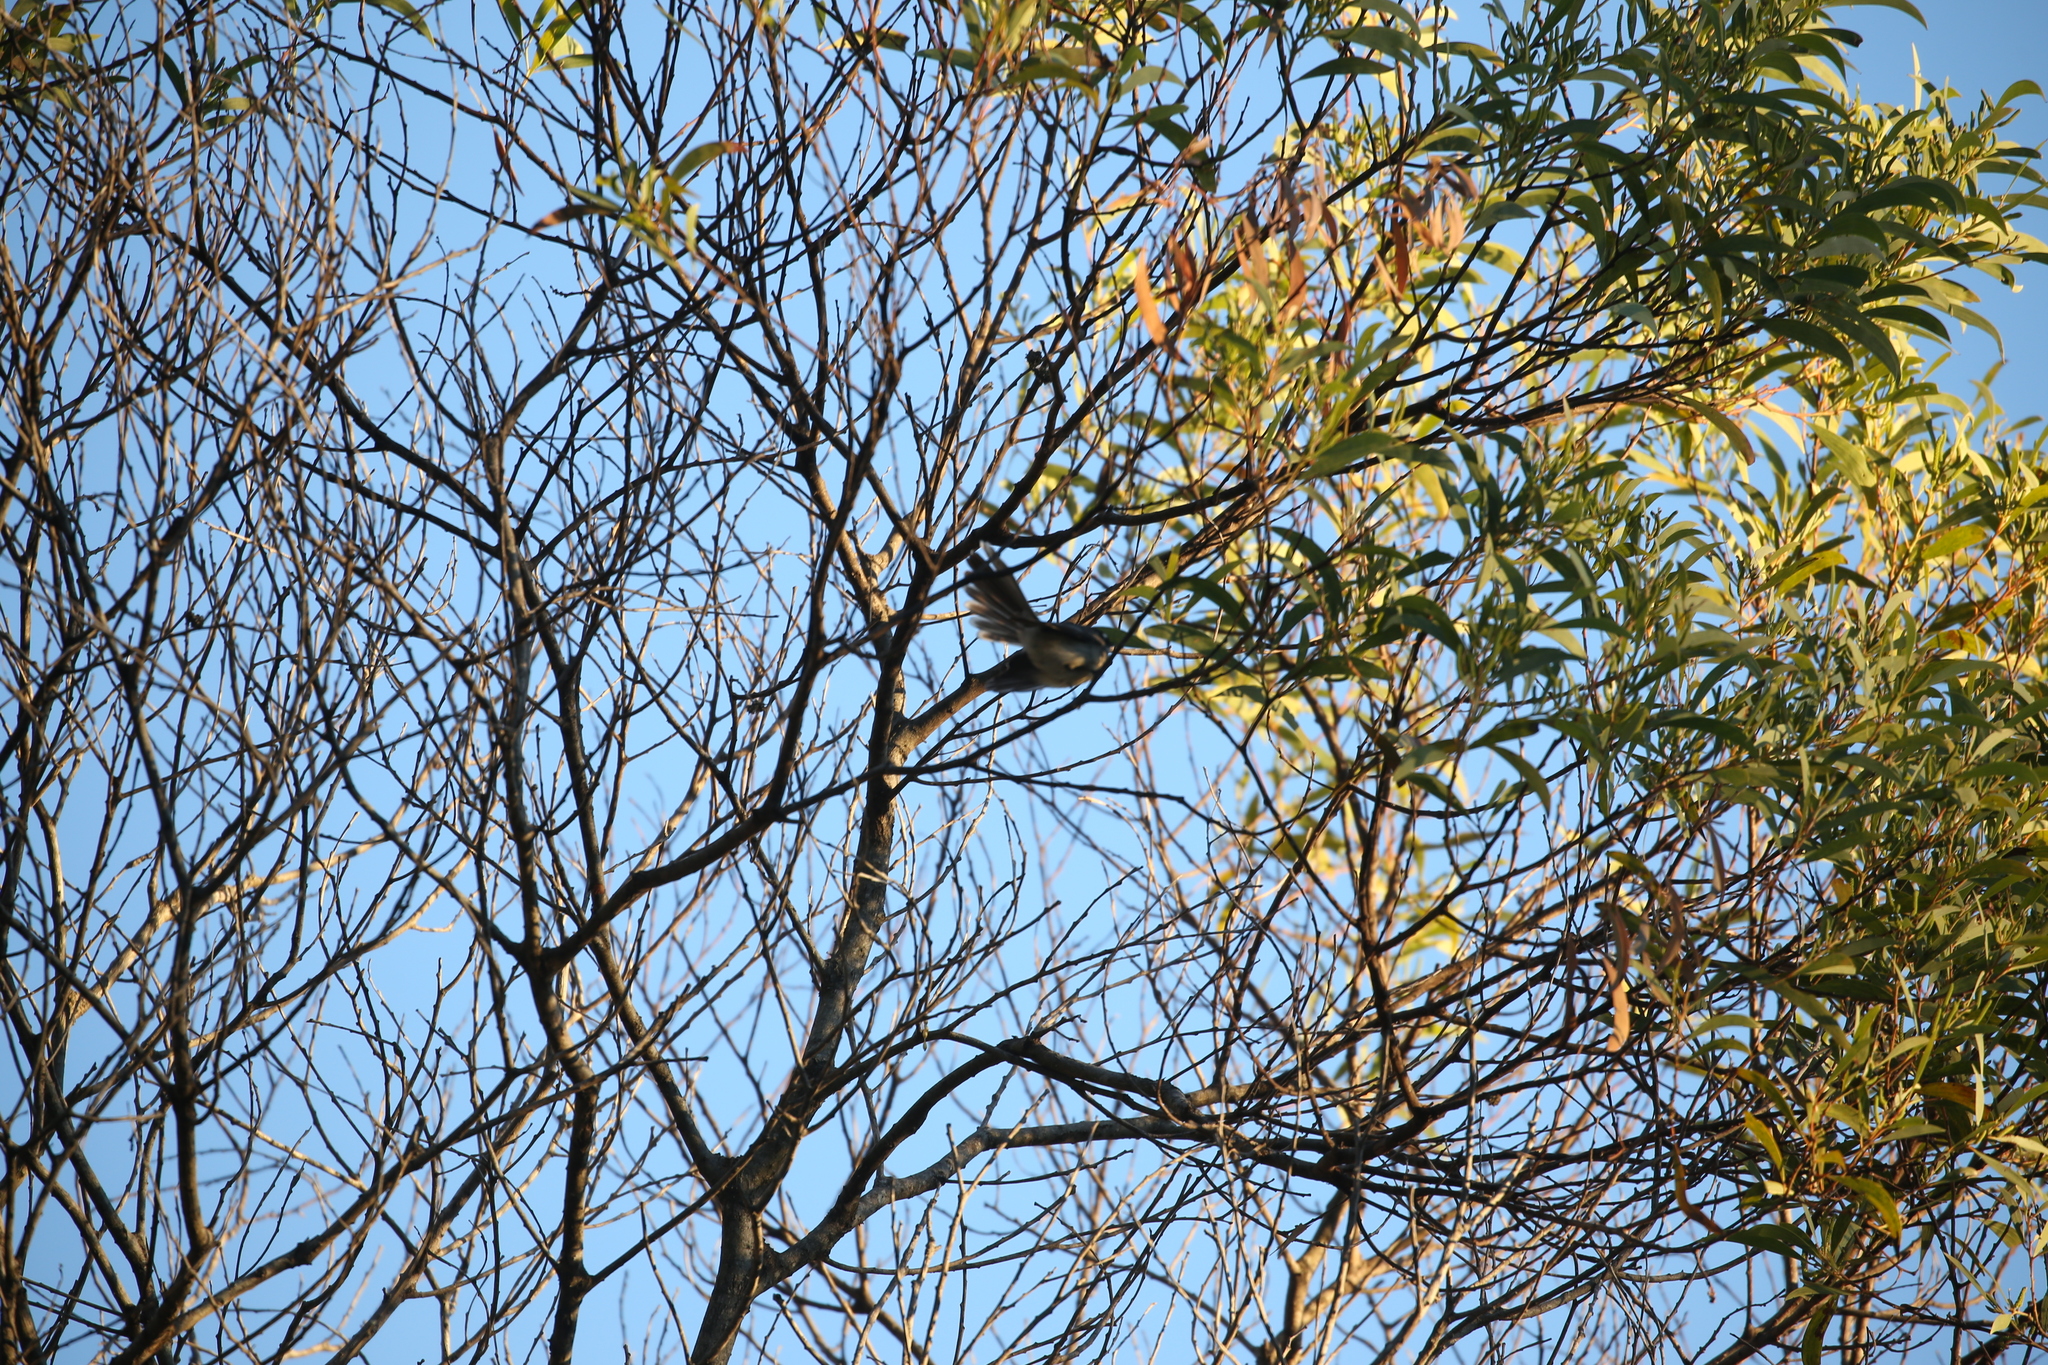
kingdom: Animalia
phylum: Chordata
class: Aves
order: Passeriformes
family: Rhipiduridae
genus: Rhipidura
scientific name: Rhipidura albiscapa
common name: Grey fantail
